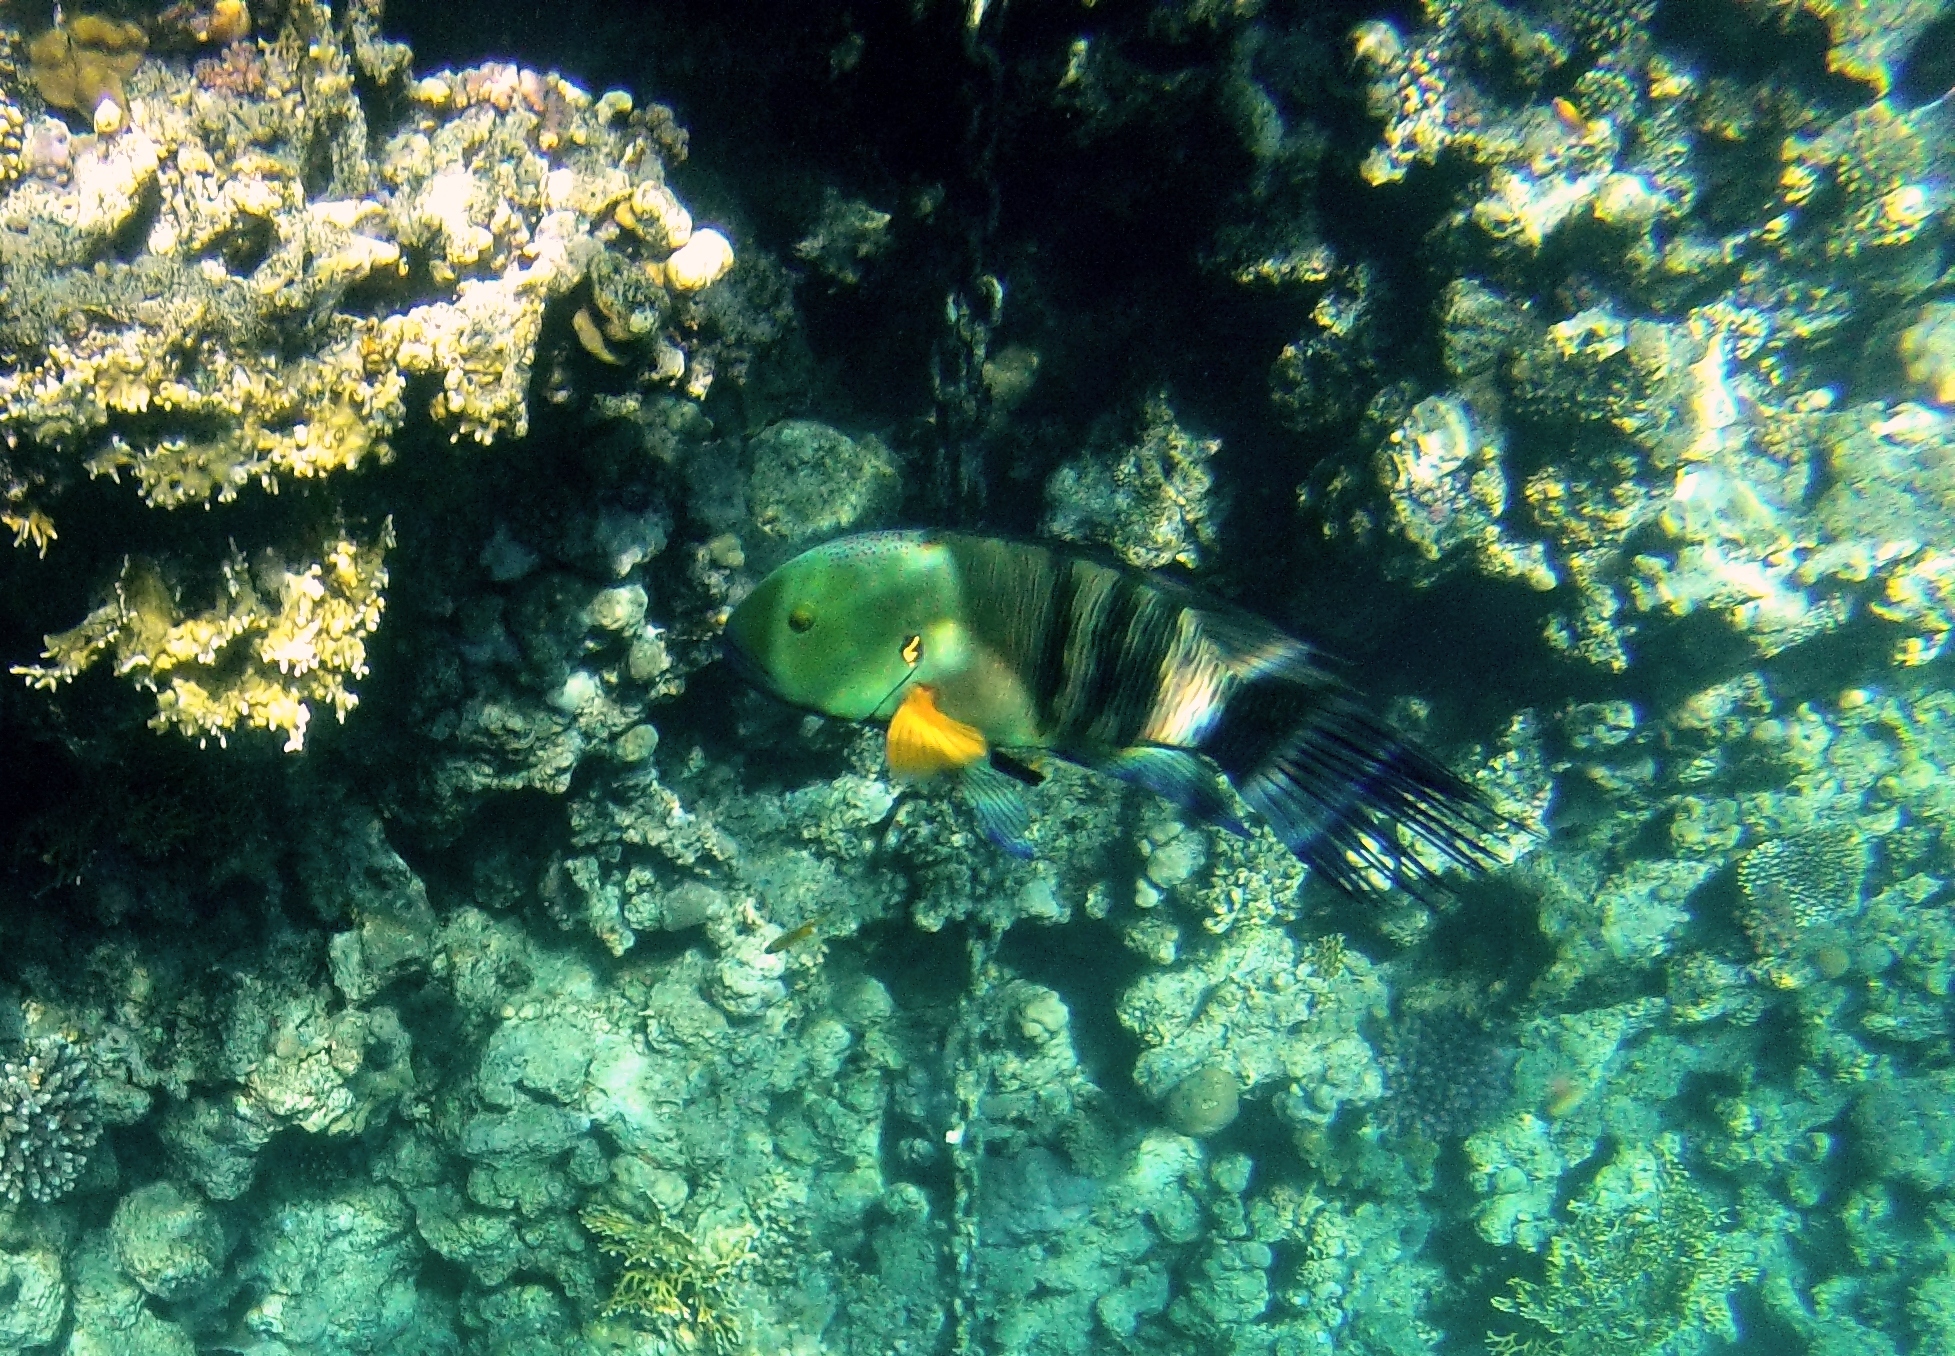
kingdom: Animalia
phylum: Chordata
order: Perciformes
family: Labridae
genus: Cheilinus
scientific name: Cheilinus lunulatus
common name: Broomtail wrasse
